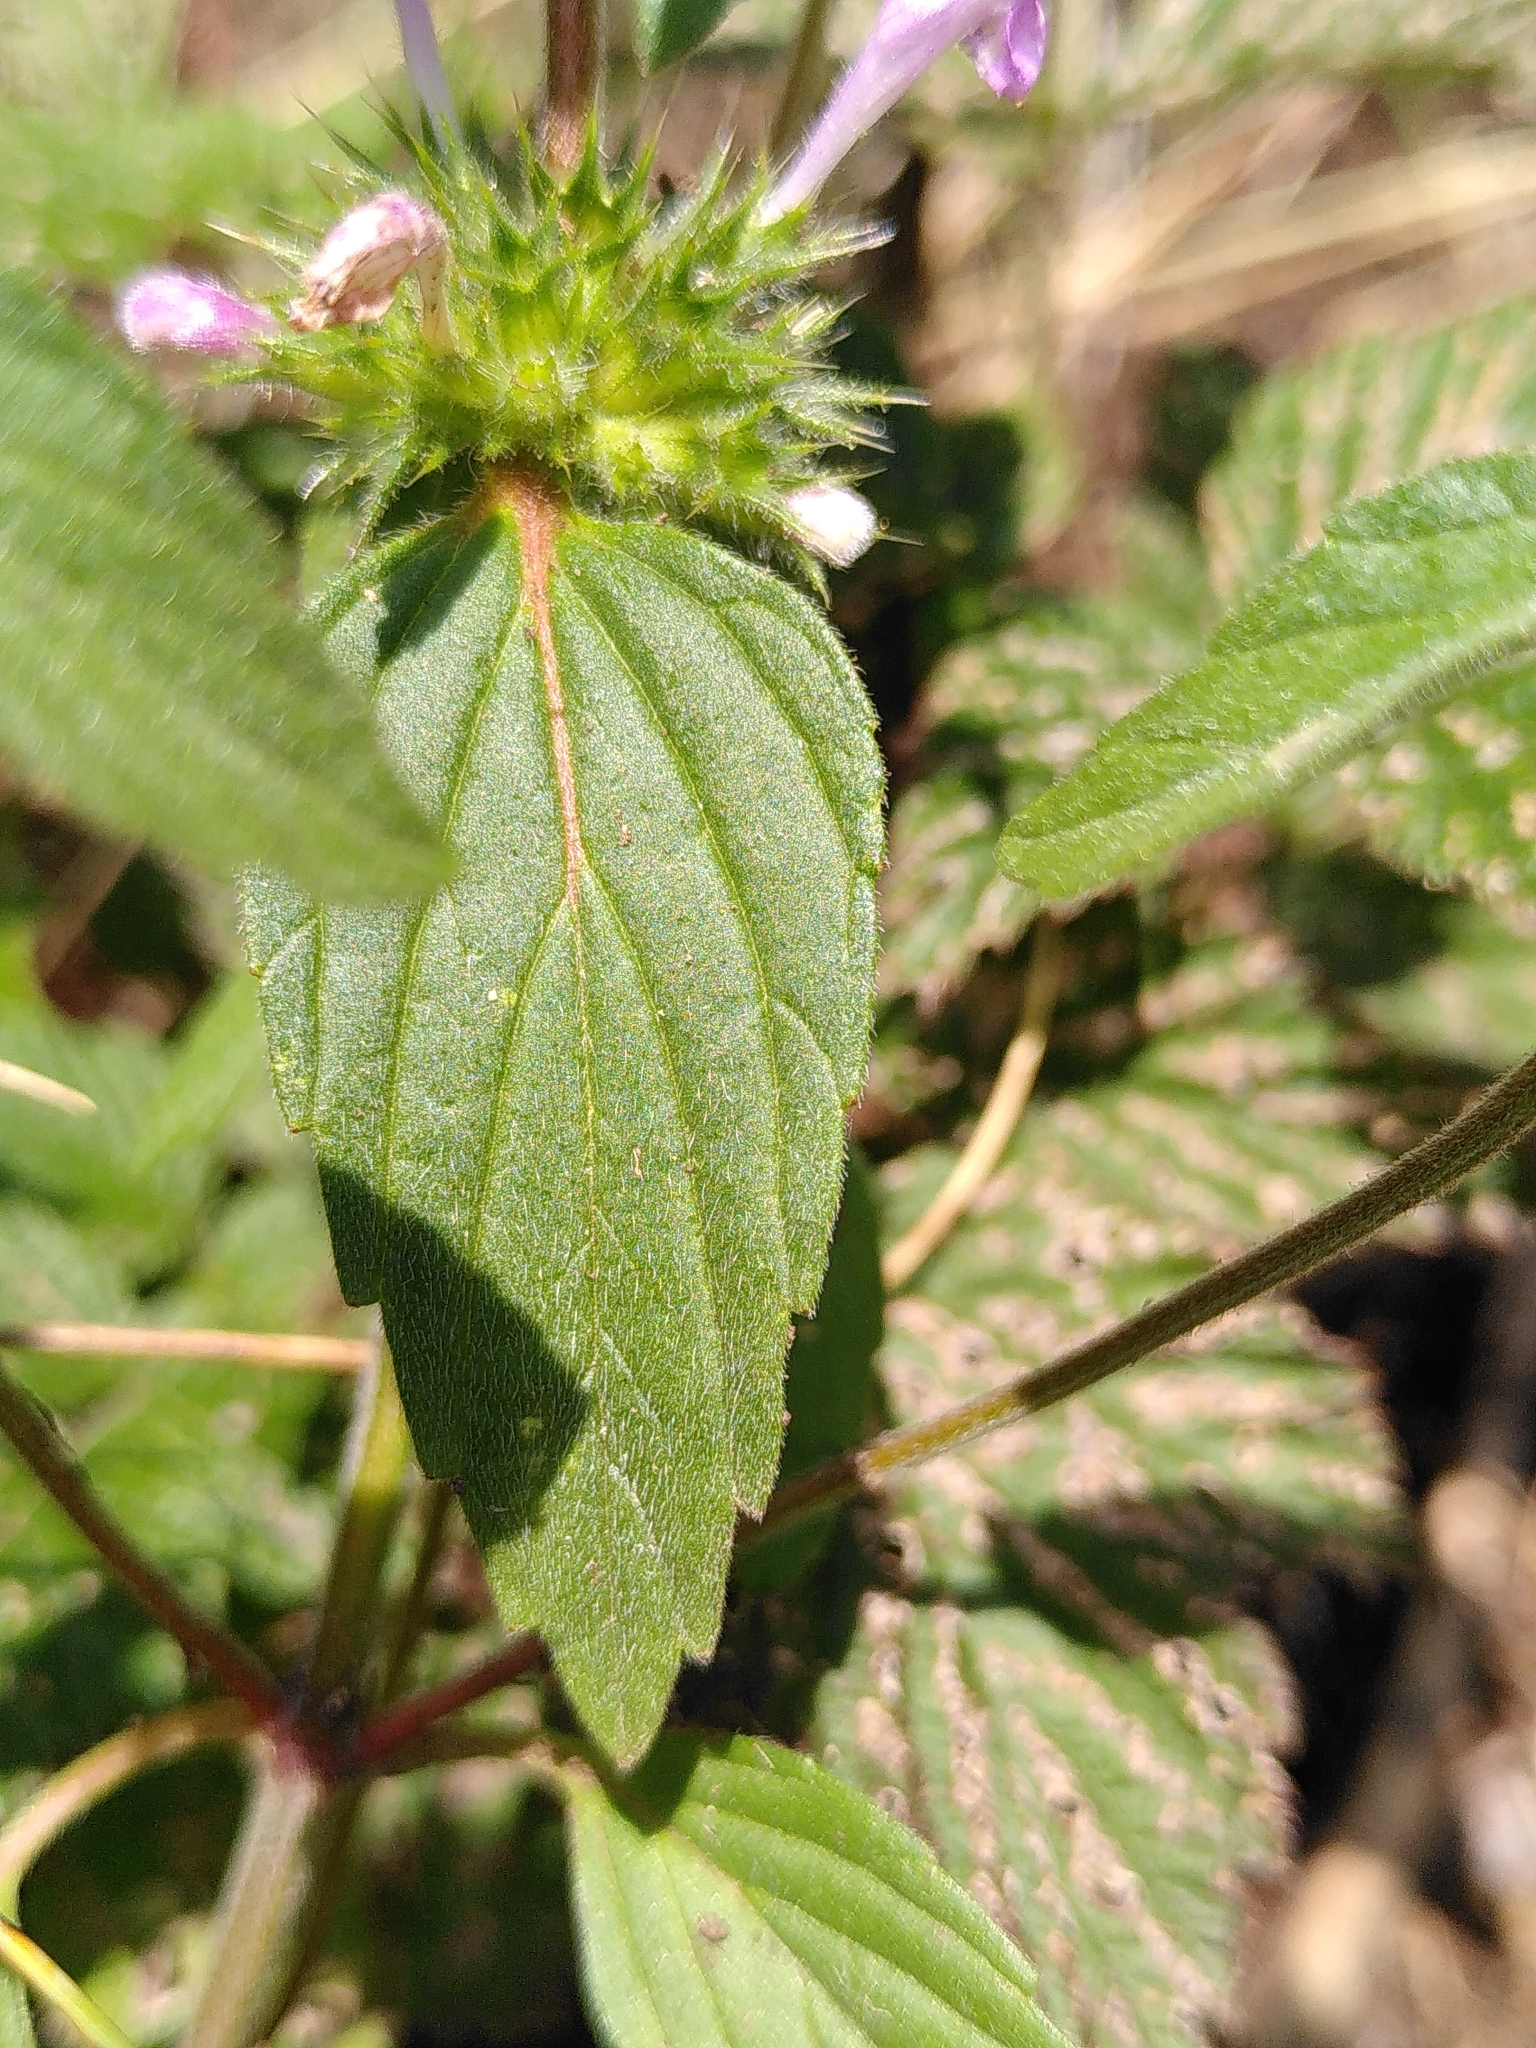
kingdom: Plantae
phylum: Tracheophyta
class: Magnoliopsida
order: Lamiales
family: Lamiaceae
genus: Clinopodium
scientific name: Clinopodium vulgare
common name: Wild basil
